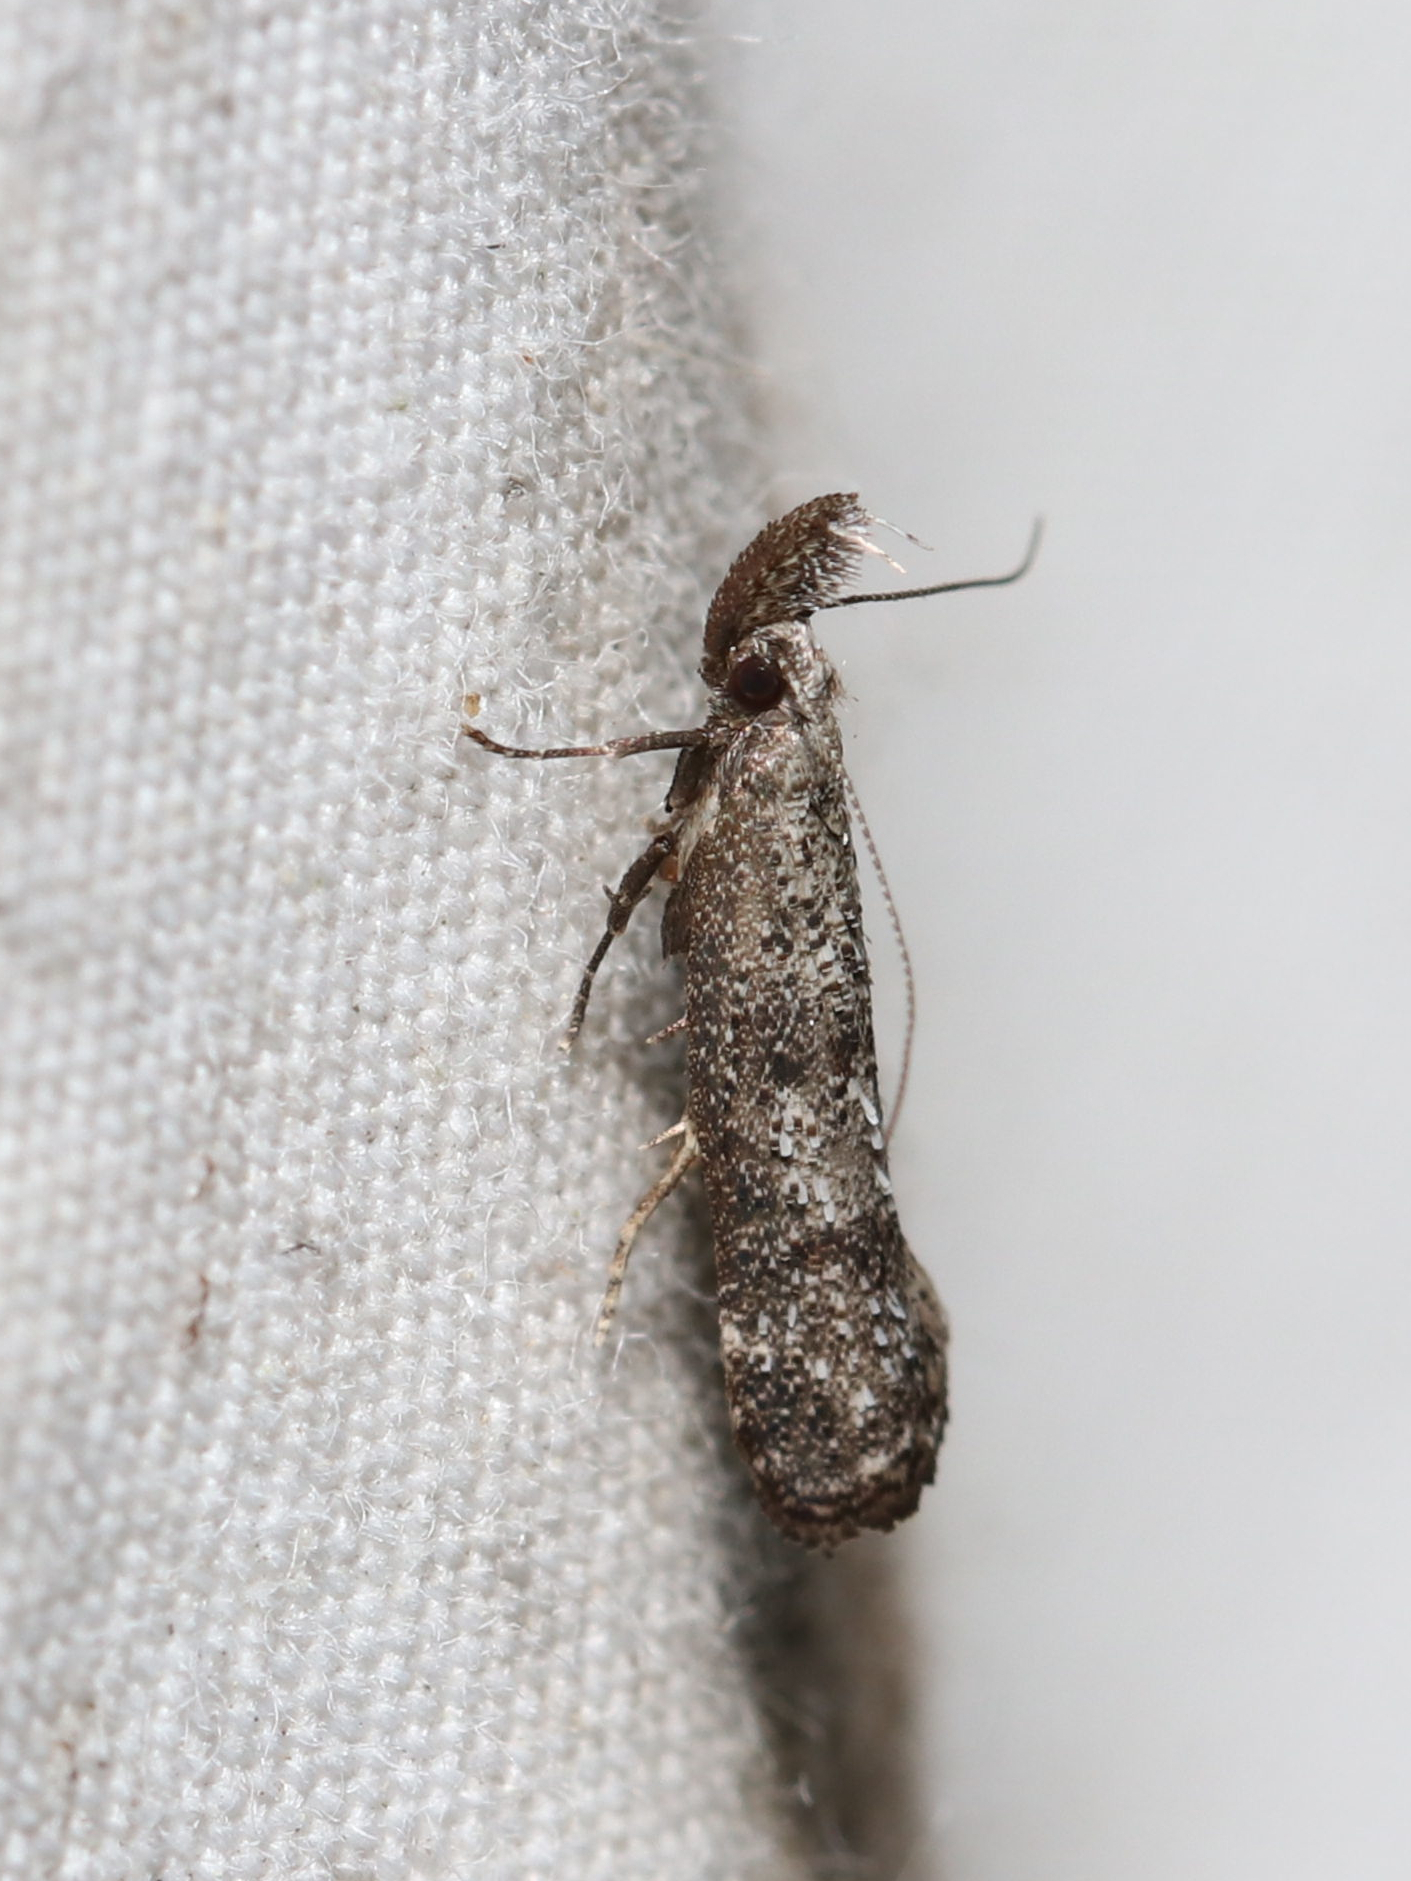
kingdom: Animalia
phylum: Arthropoda
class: Insecta
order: Lepidoptera
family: Gelechiidae
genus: Dichomeris
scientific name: Dichomeris inversella
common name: Inverse dichomeris moth
